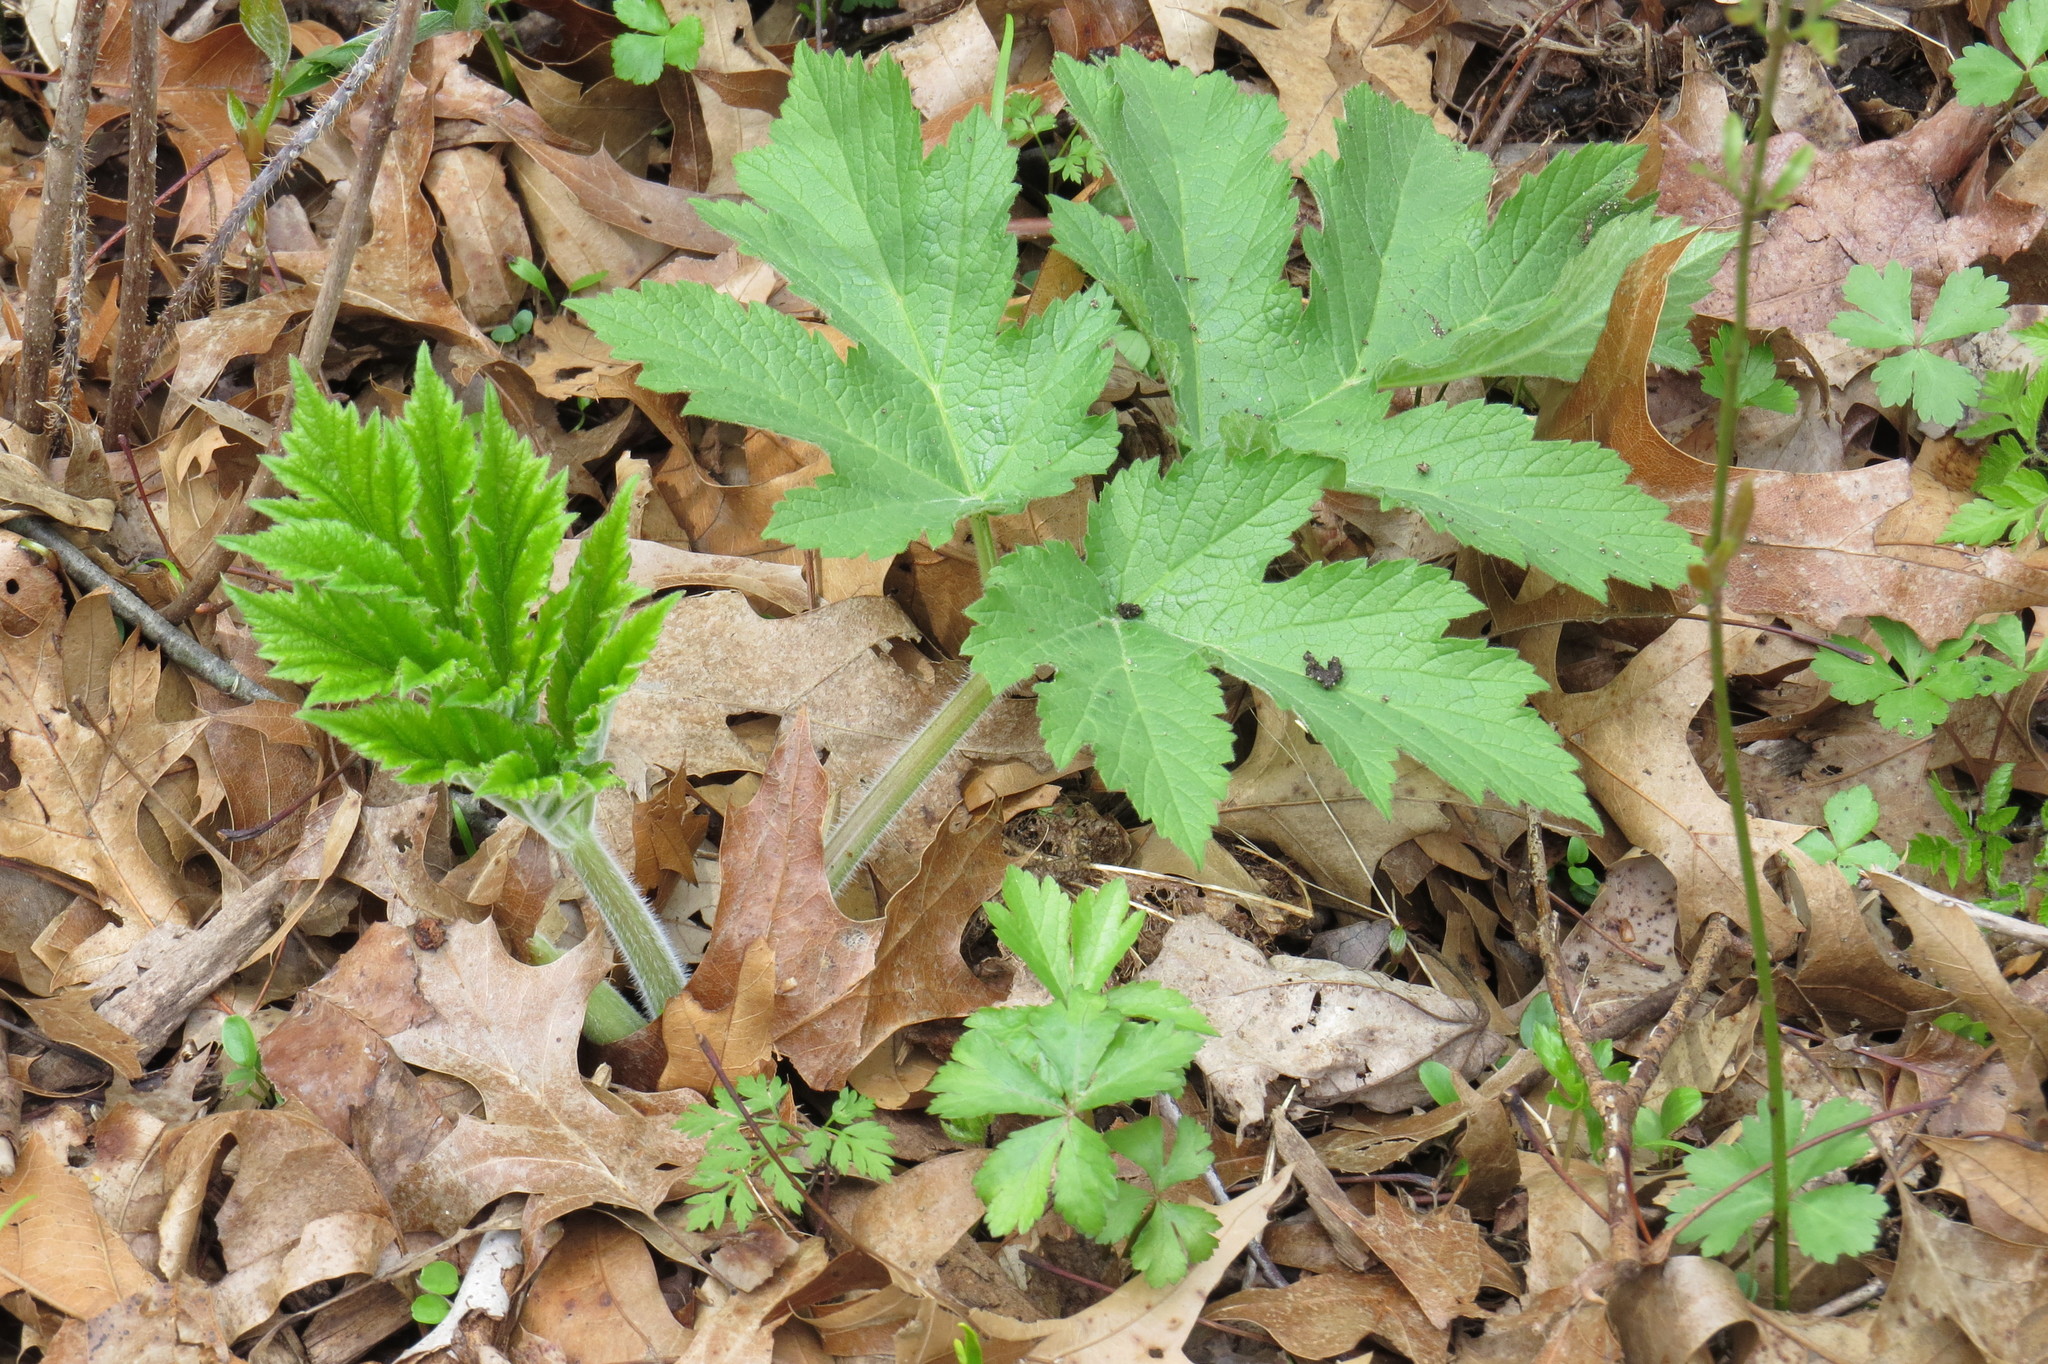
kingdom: Plantae
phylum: Tracheophyta
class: Magnoliopsida
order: Apiales
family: Apiaceae
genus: Heracleum
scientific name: Heracleum maximum
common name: American cow parsnip
